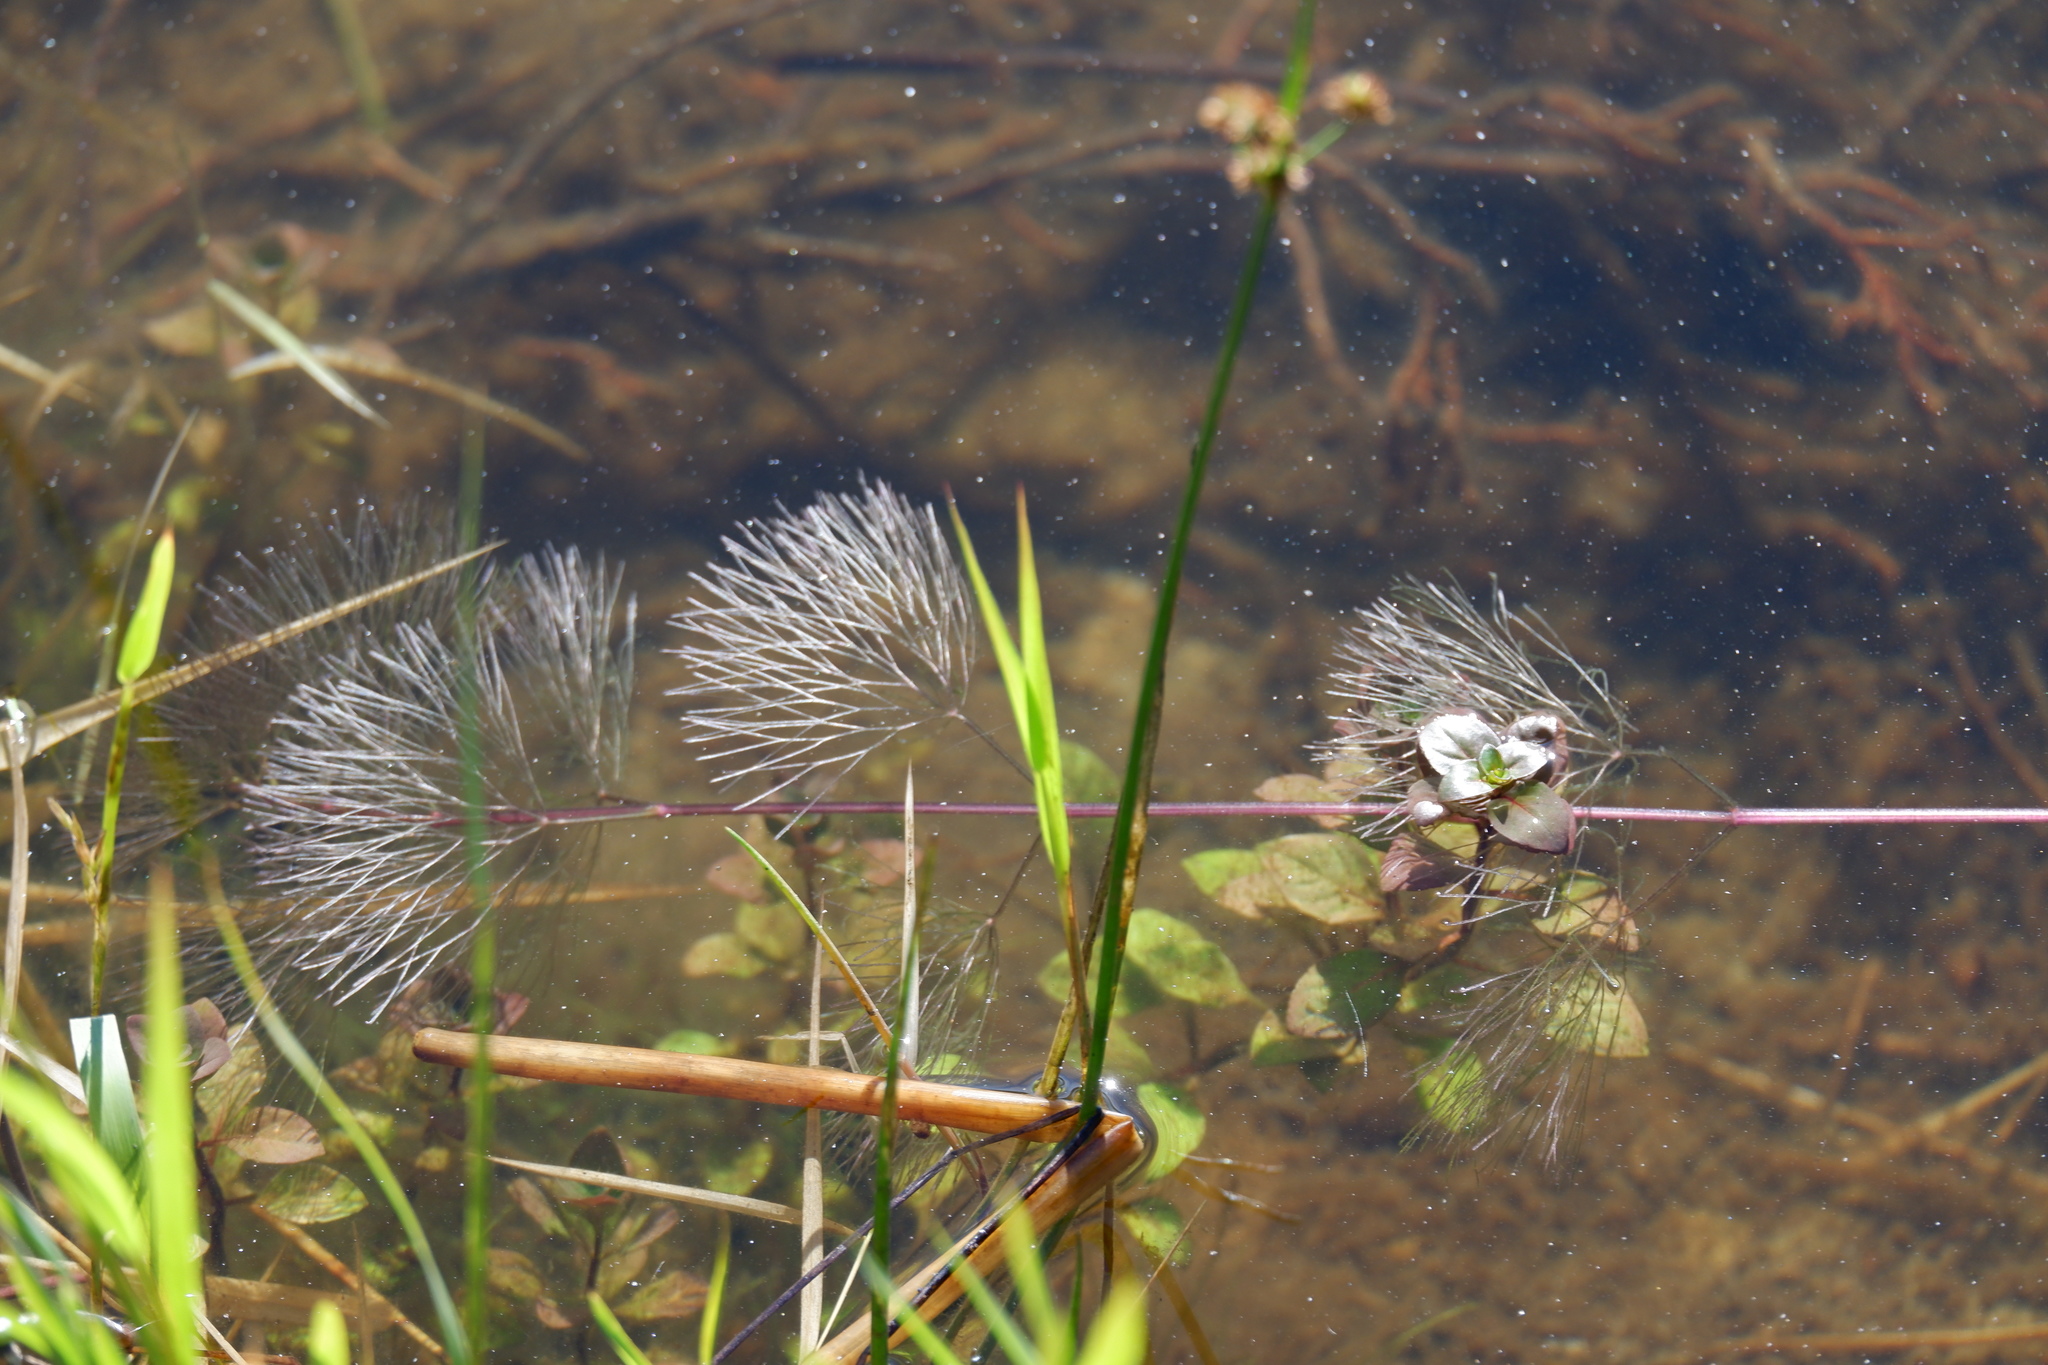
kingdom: Plantae
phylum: Tracheophyta
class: Magnoliopsida
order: Nymphaeales
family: Cabombaceae
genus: Cabomba
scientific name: Cabomba caroliniana
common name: Fanwort
